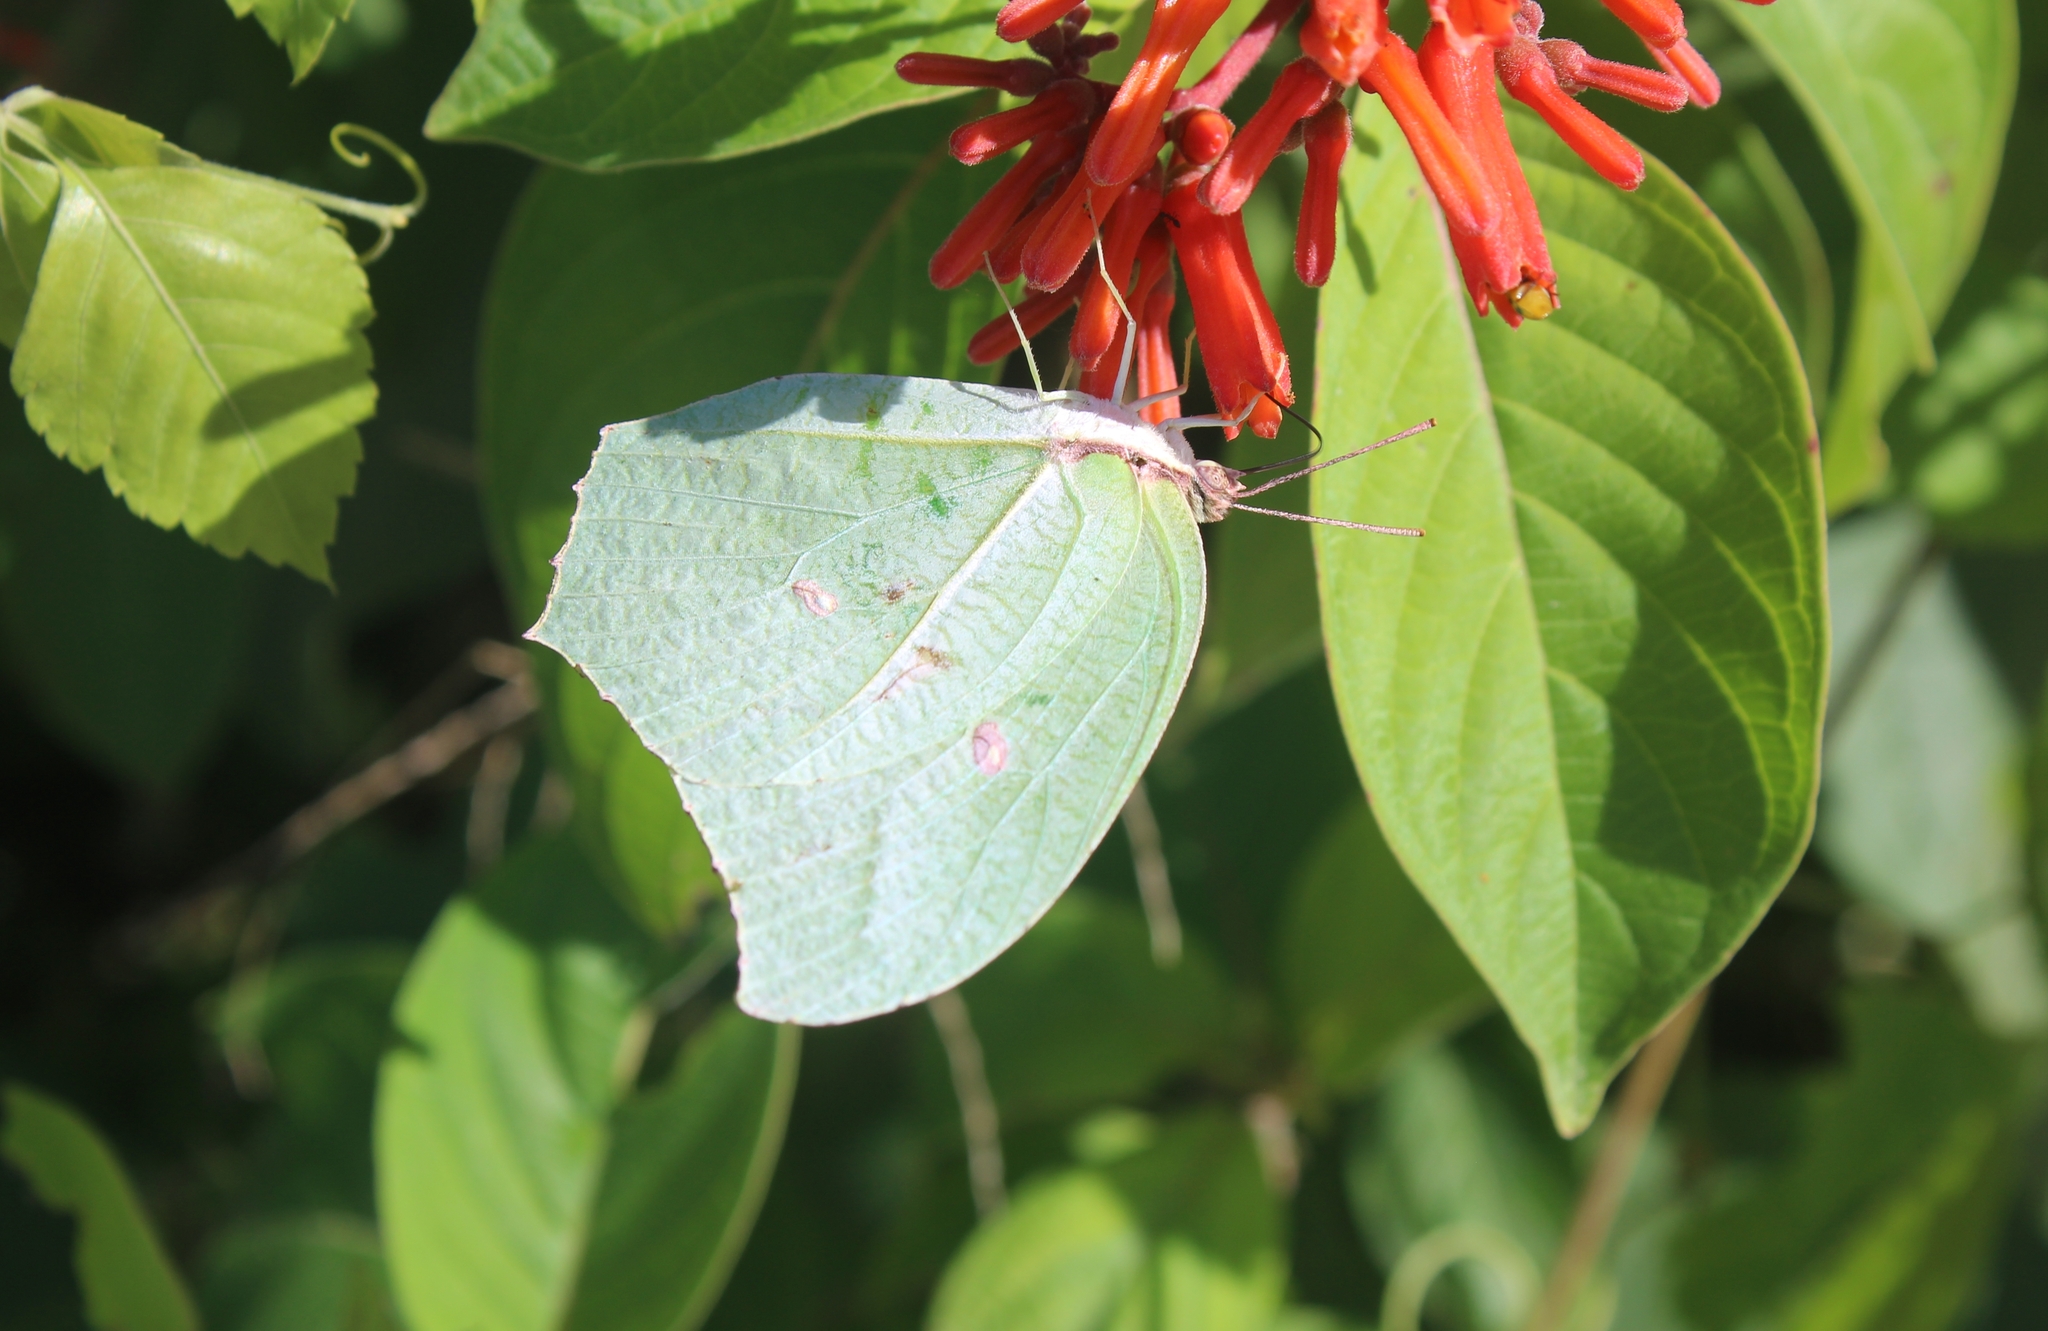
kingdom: Animalia
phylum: Arthropoda
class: Insecta
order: Lepidoptera
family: Pieridae
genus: Anteos
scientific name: Anteos maerula
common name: Angled sulphur
